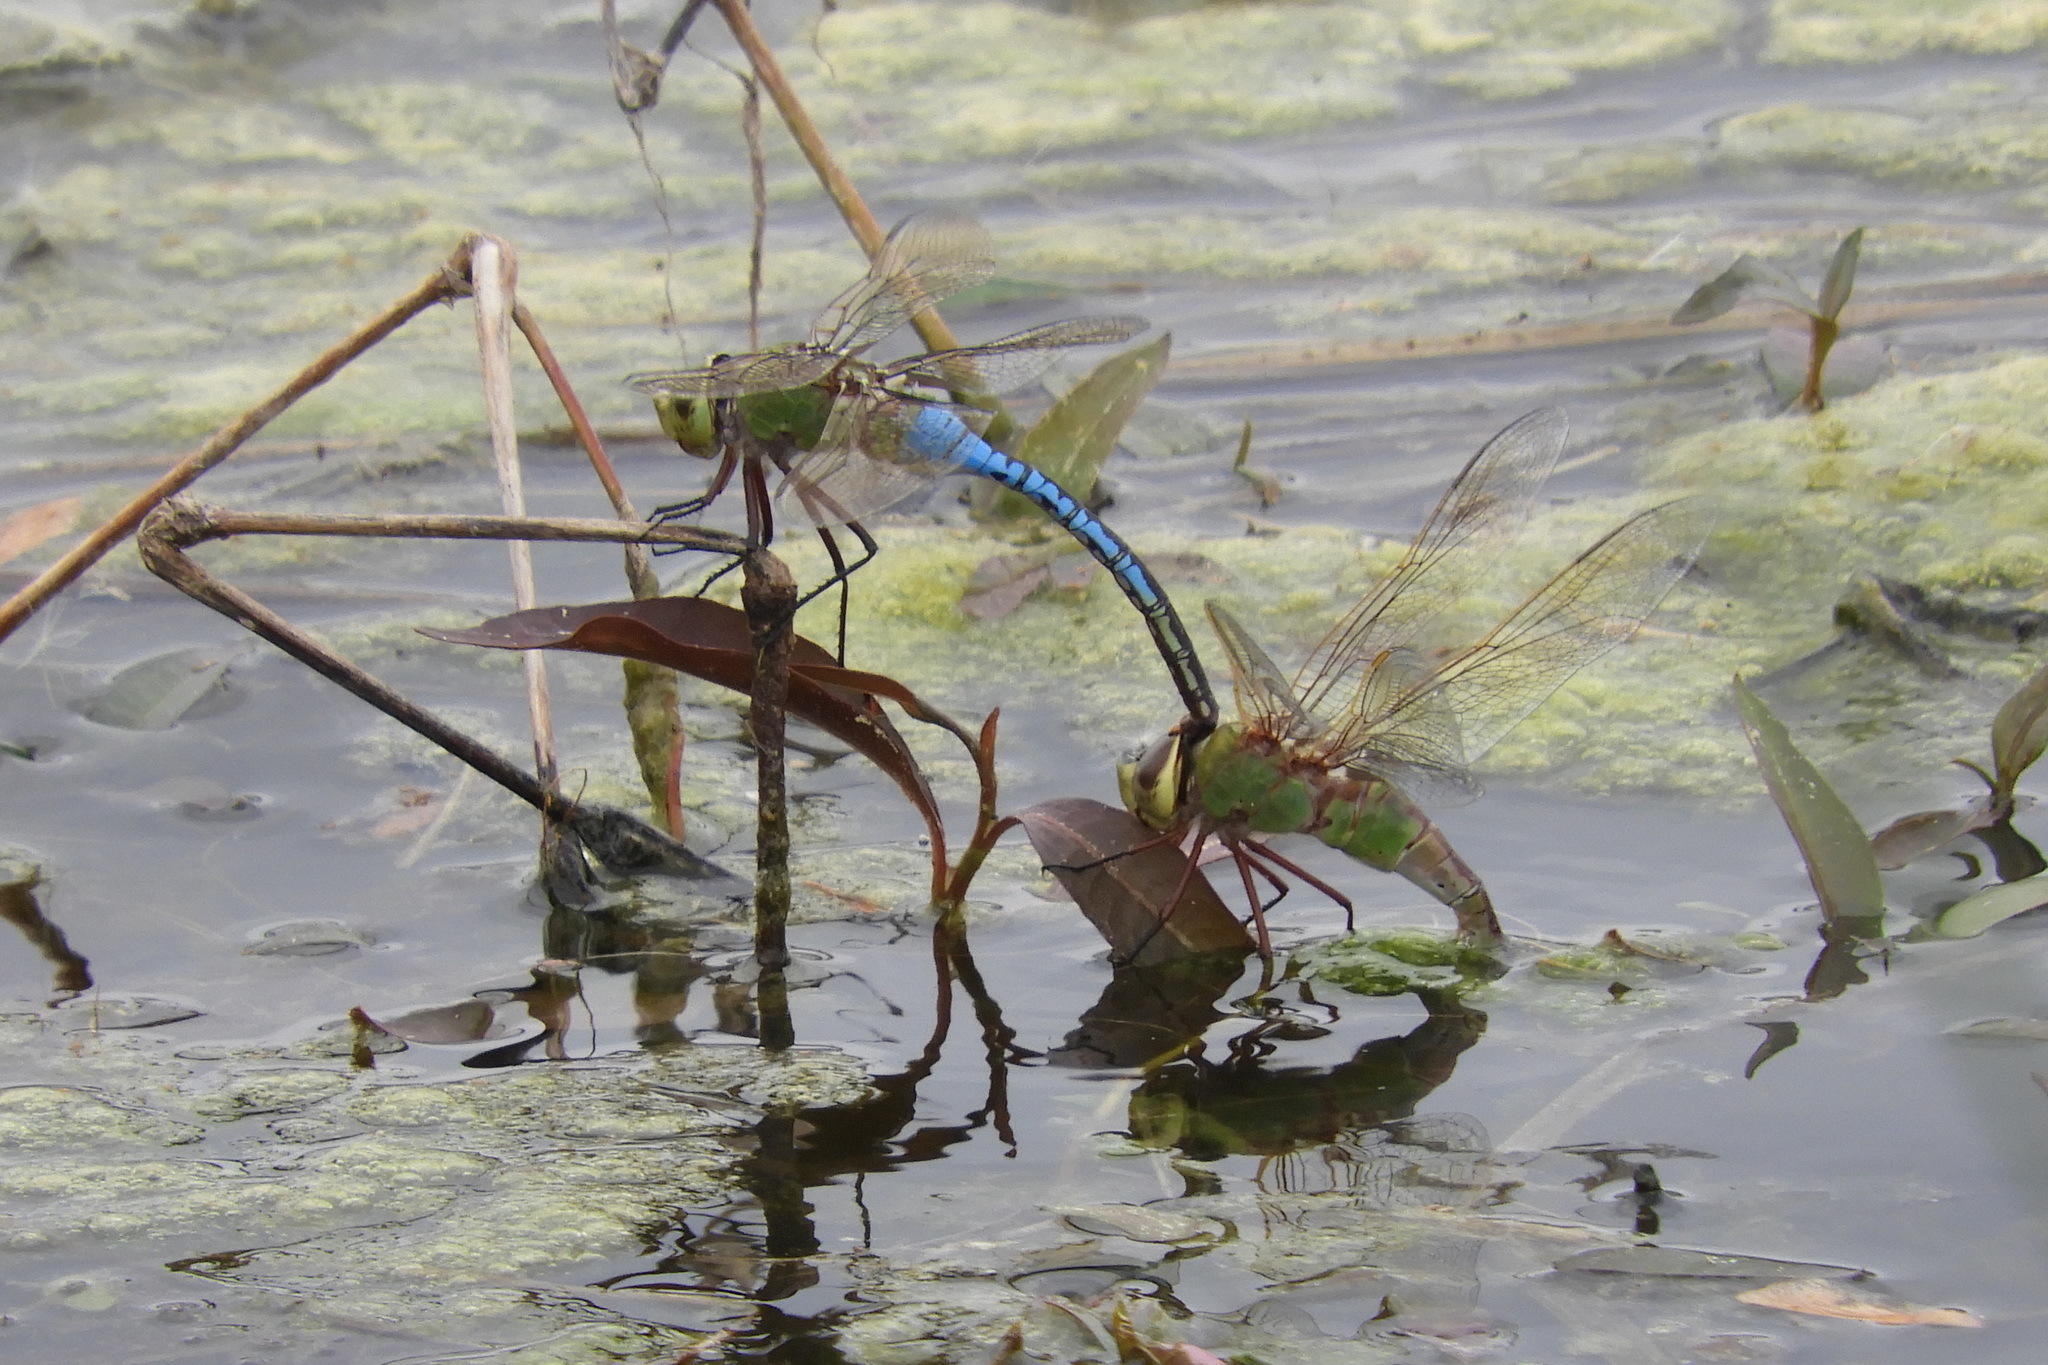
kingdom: Animalia
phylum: Arthropoda
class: Insecta
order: Odonata
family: Aeshnidae
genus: Anax
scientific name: Anax junius
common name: Common green darner
